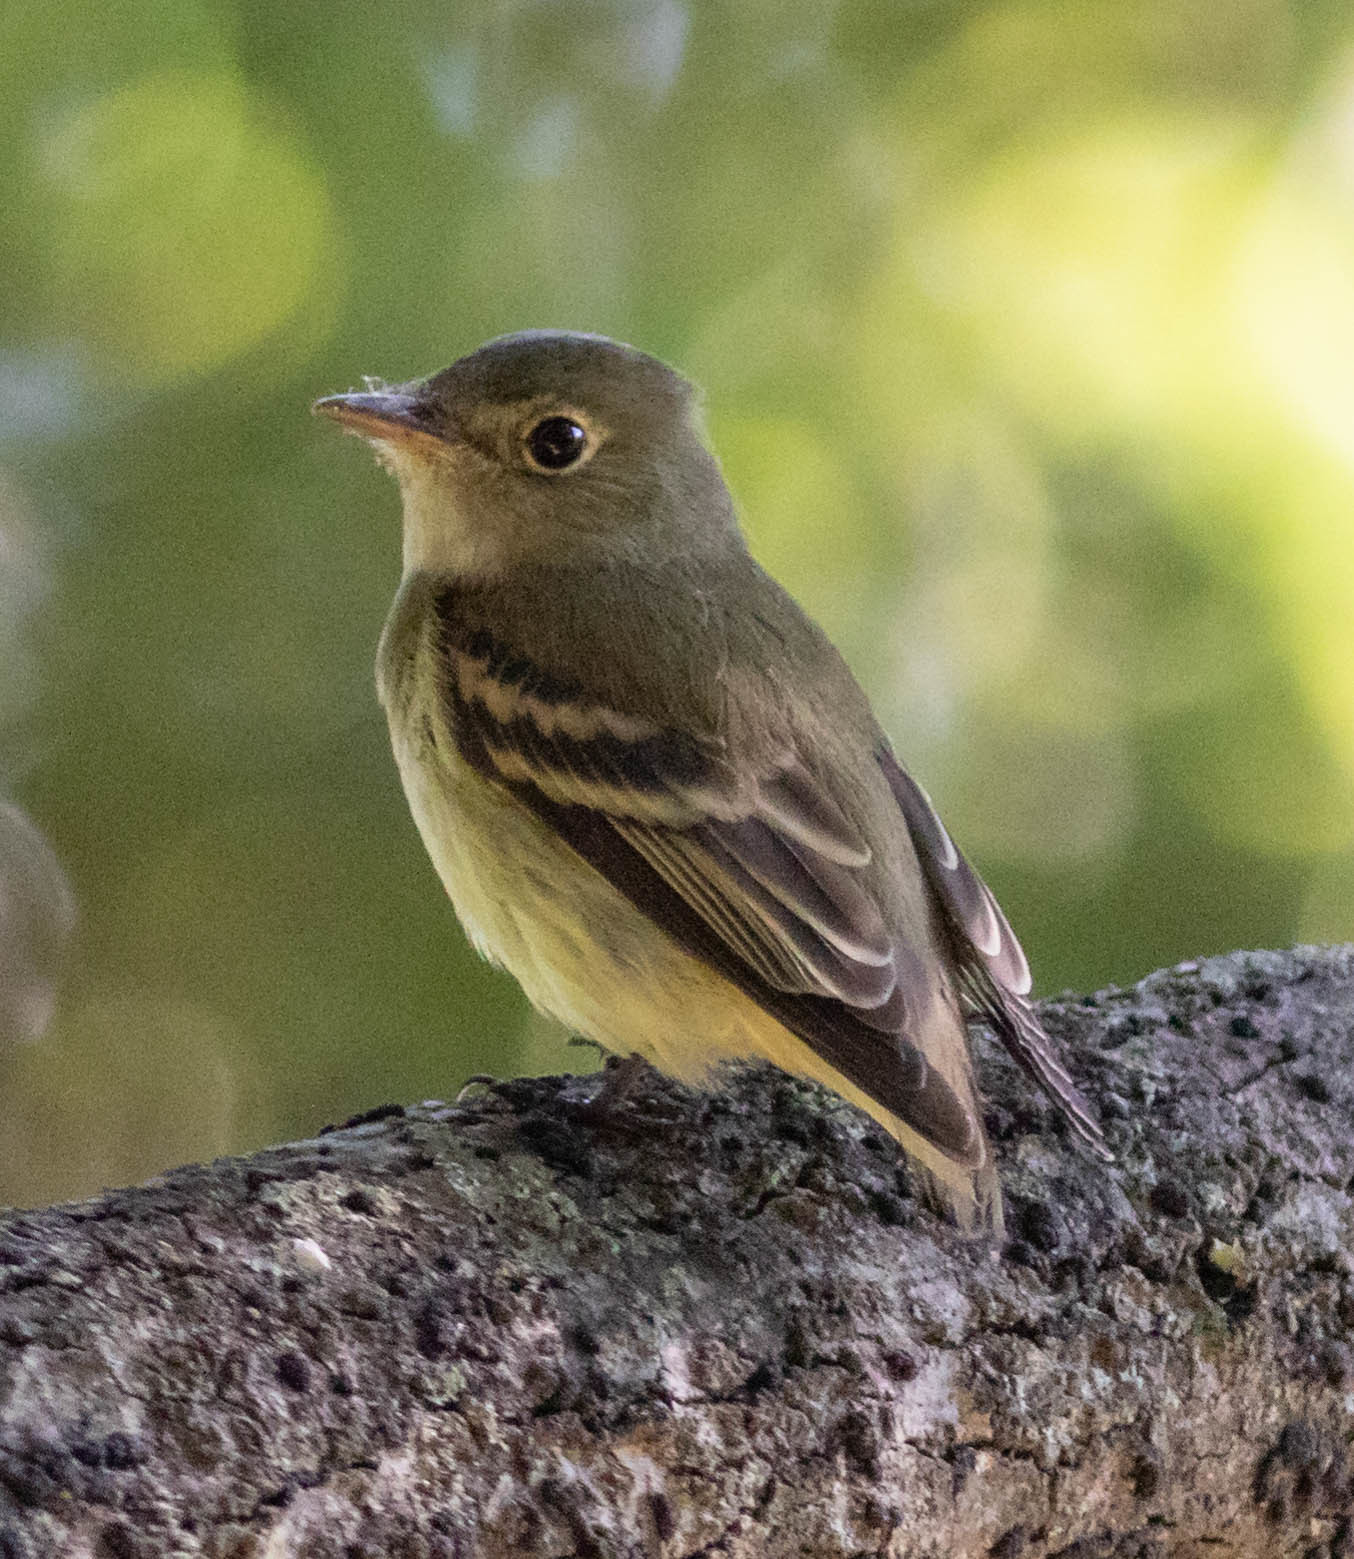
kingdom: Animalia
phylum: Chordata
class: Aves
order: Passeriformes
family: Tyrannidae
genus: Empidonax
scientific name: Empidonax virescens
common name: Acadian flycatcher
